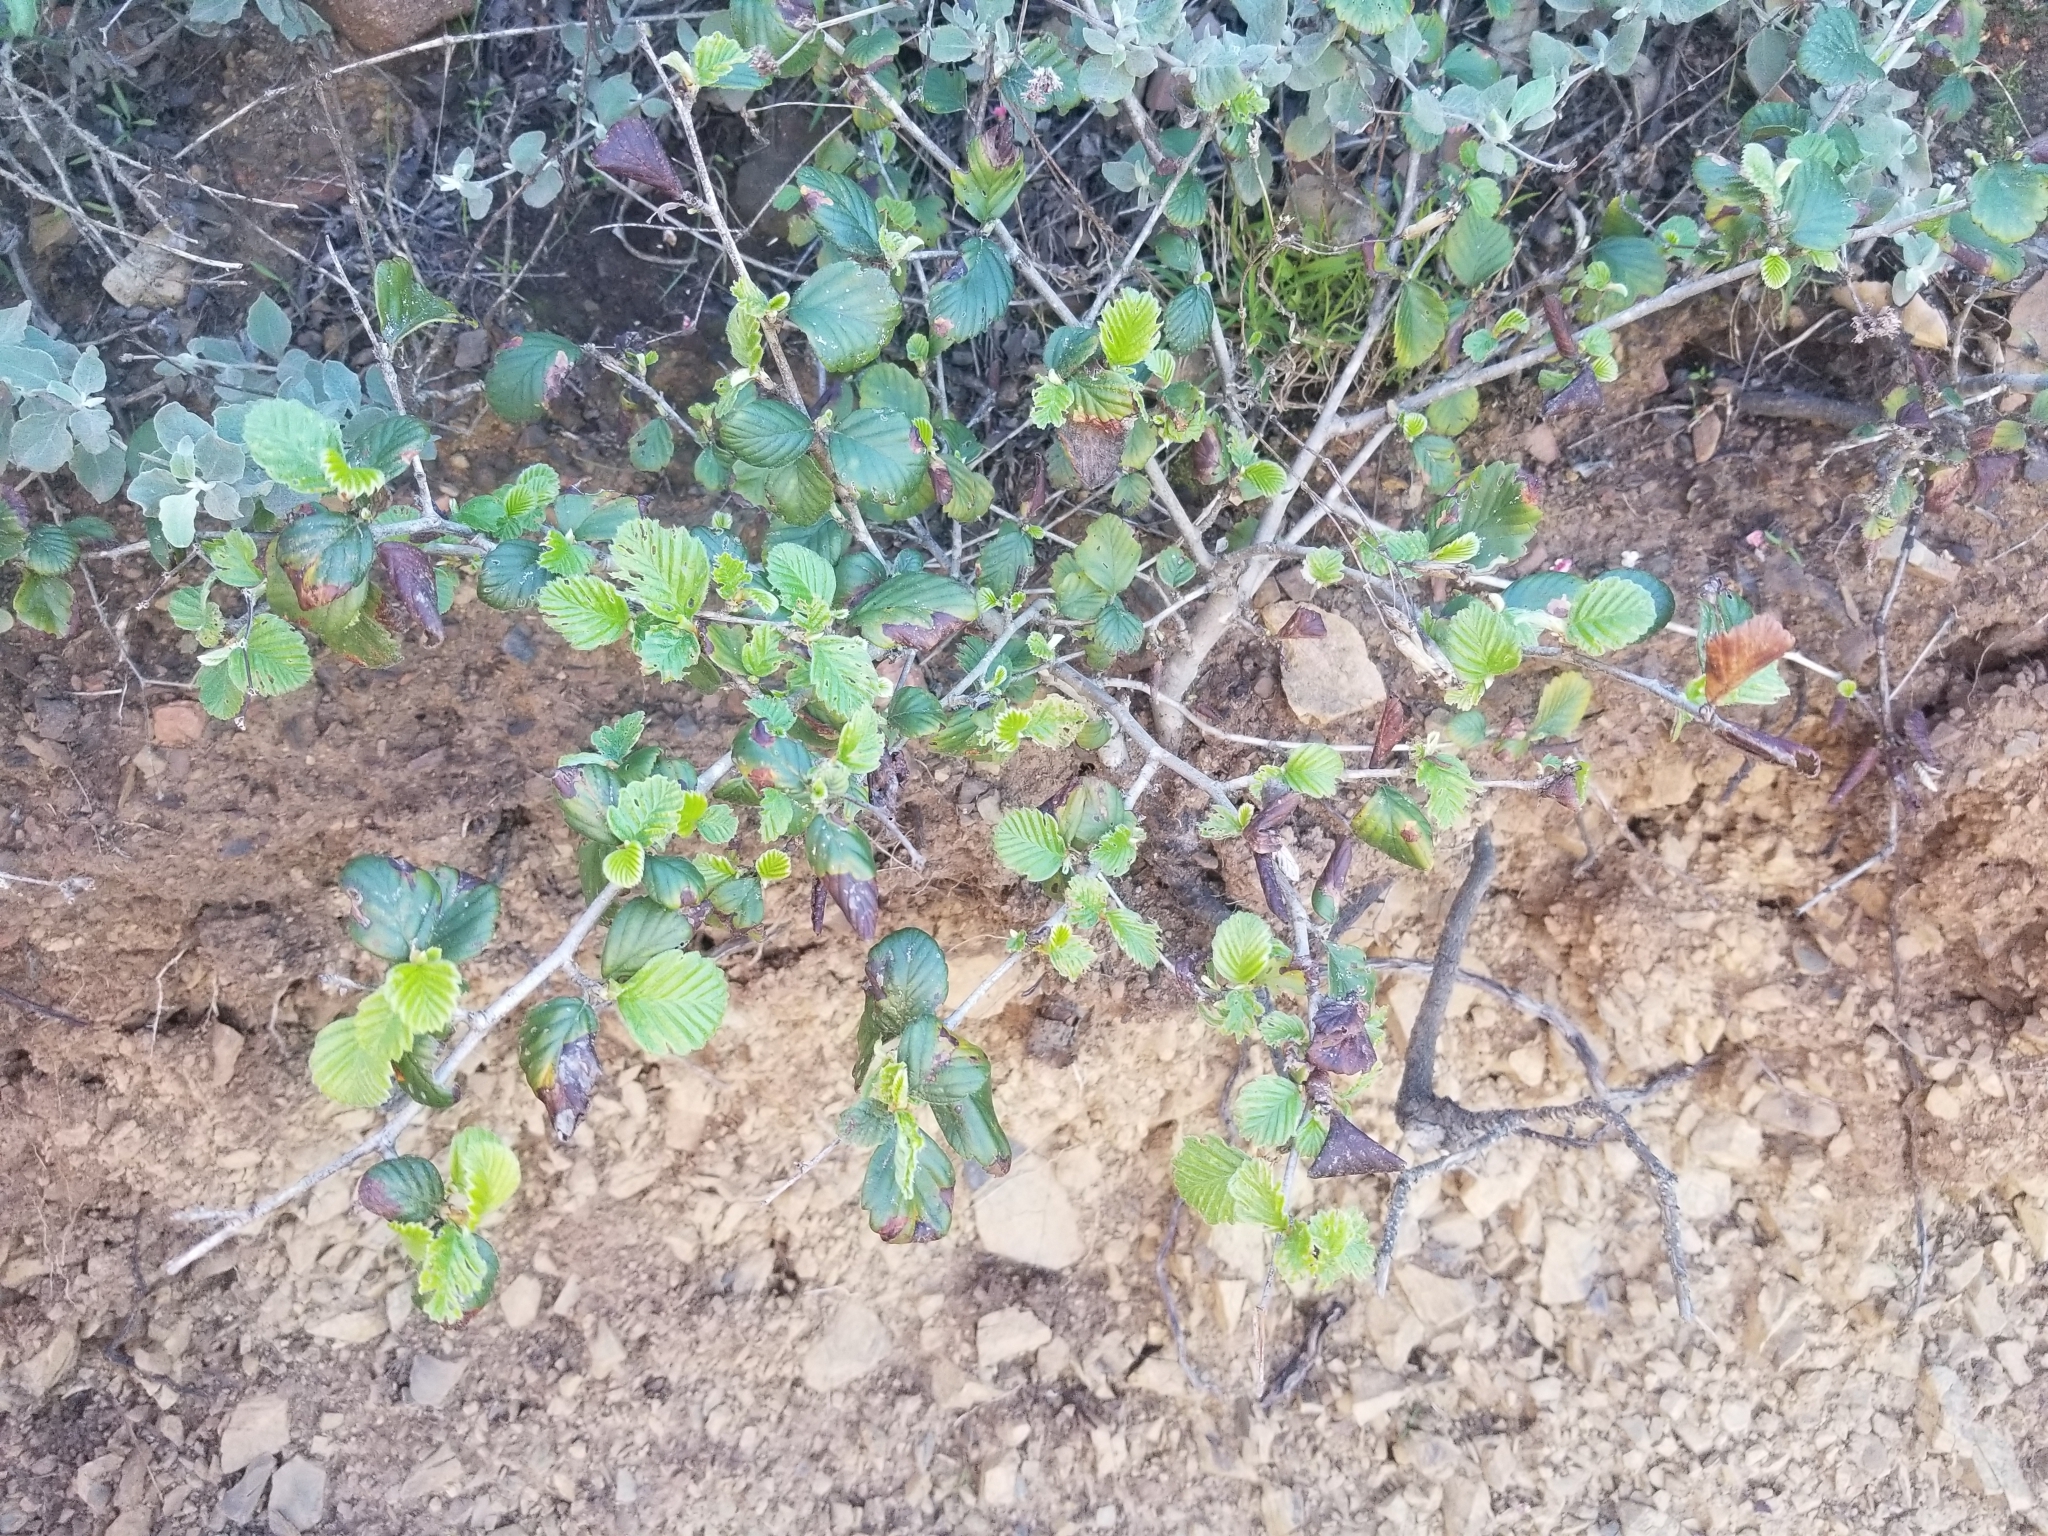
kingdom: Plantae
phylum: Tracheophyta
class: Magnoliopsida
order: Rosales
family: Rosaceae
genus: Cercocarpus
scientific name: Cercocarpus betuloides
